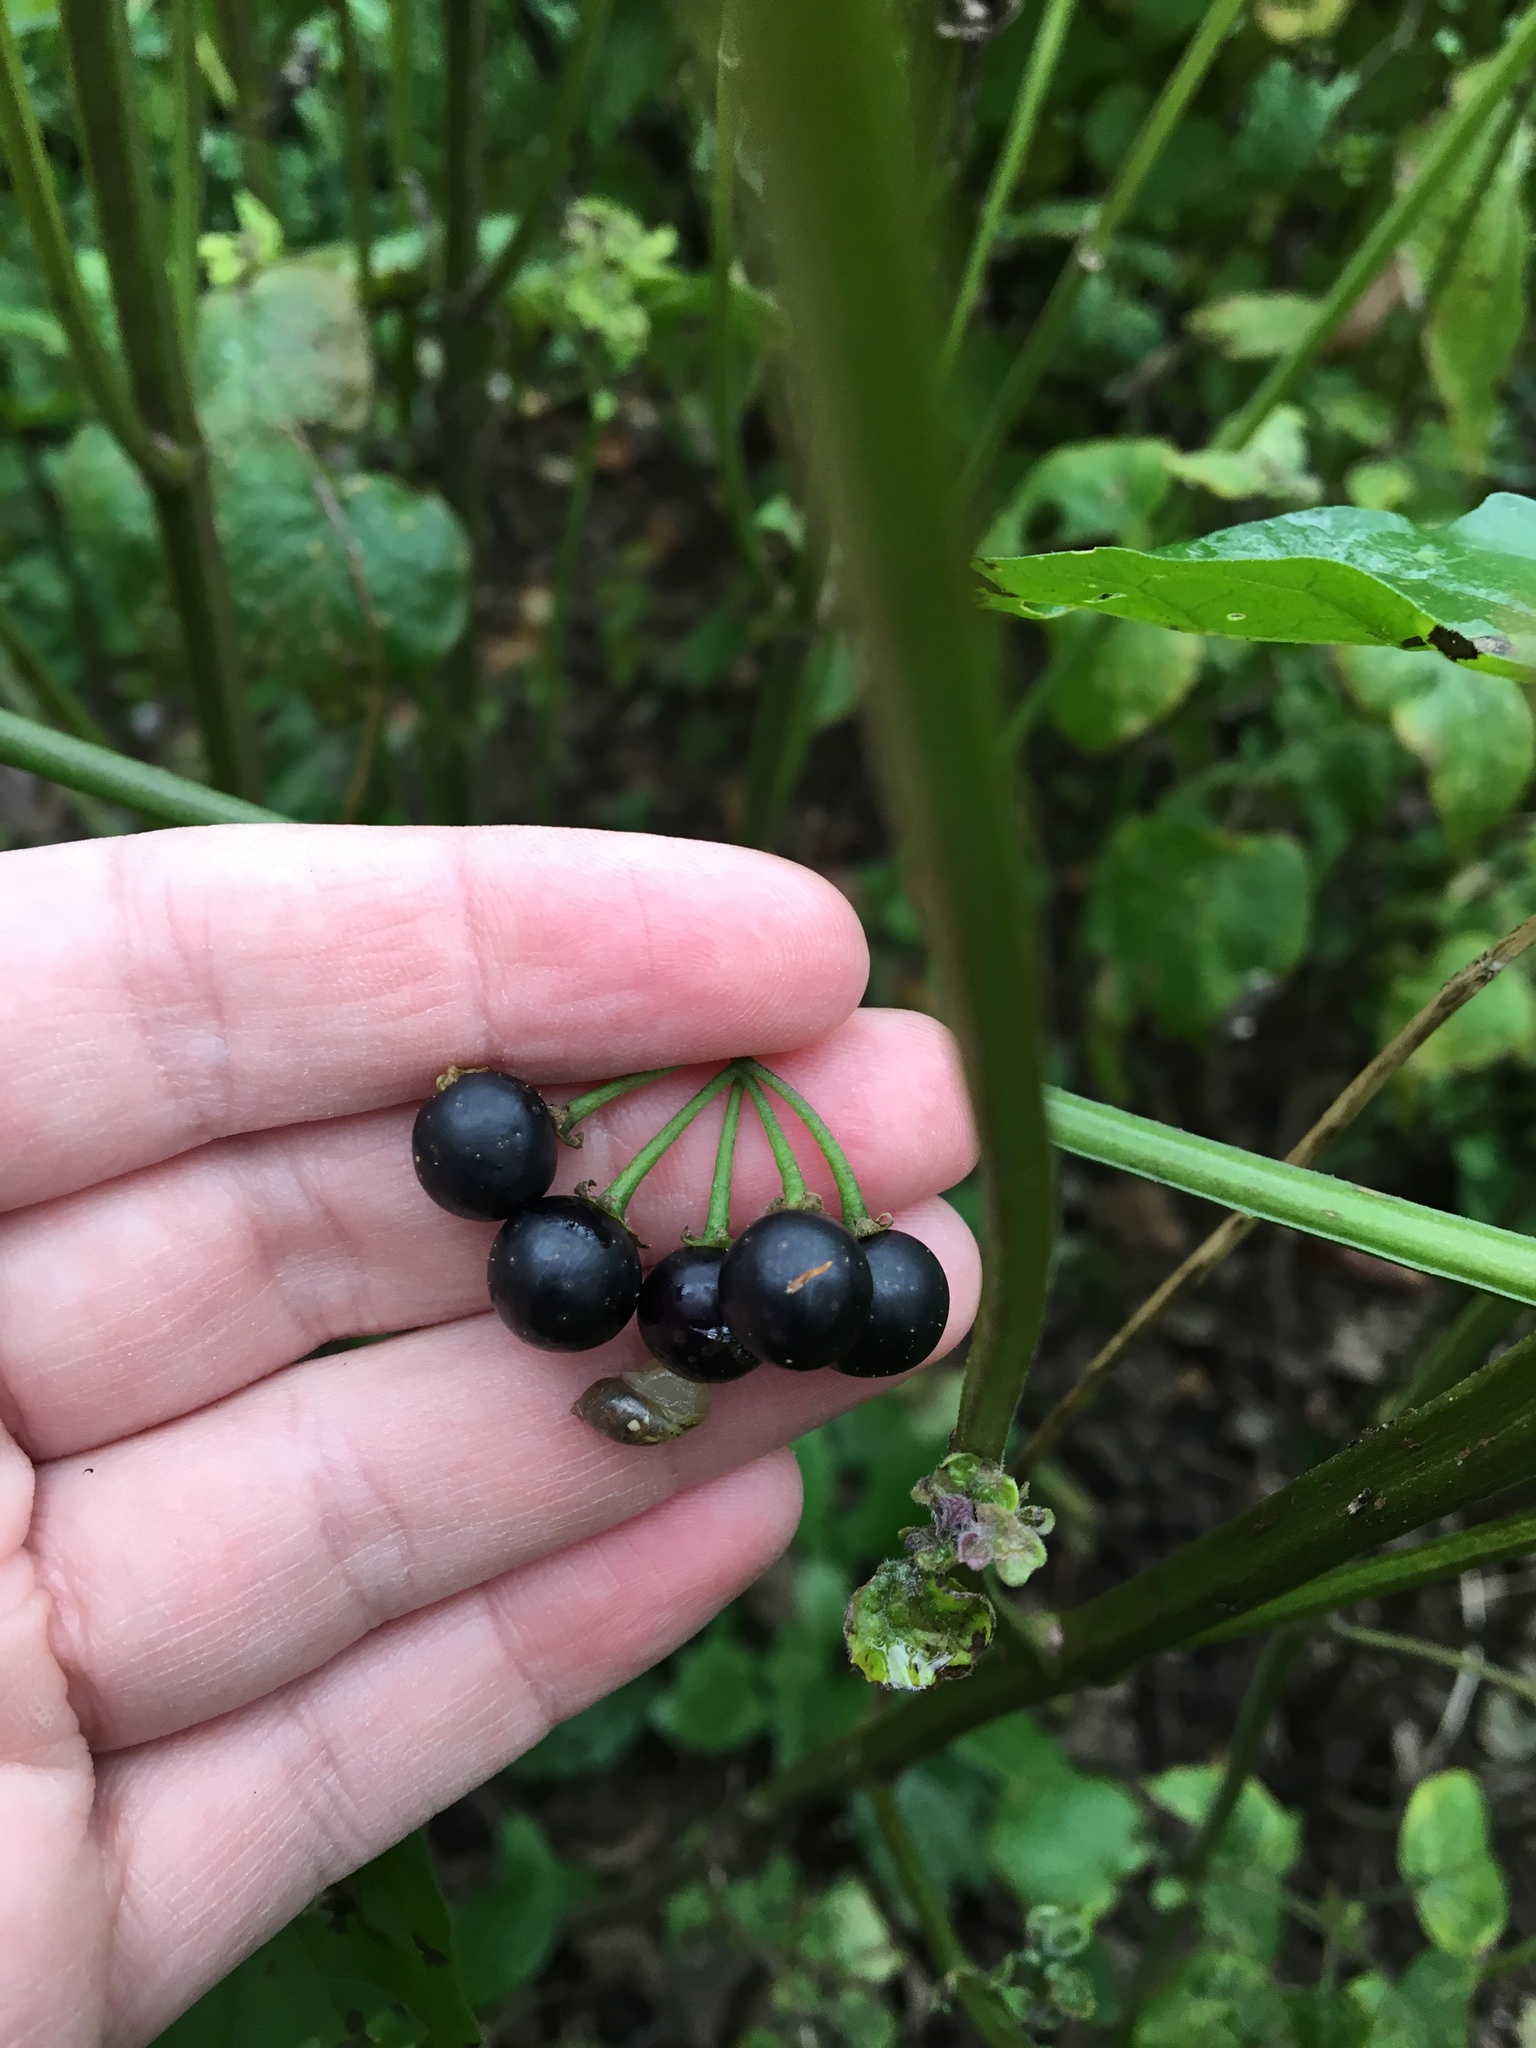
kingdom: Plantae
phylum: Tracheophyta
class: Magnoliopsida
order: Solanales
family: Solanaceae
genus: Solanum
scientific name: Solanum emulans
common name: Eastern black nightshade
